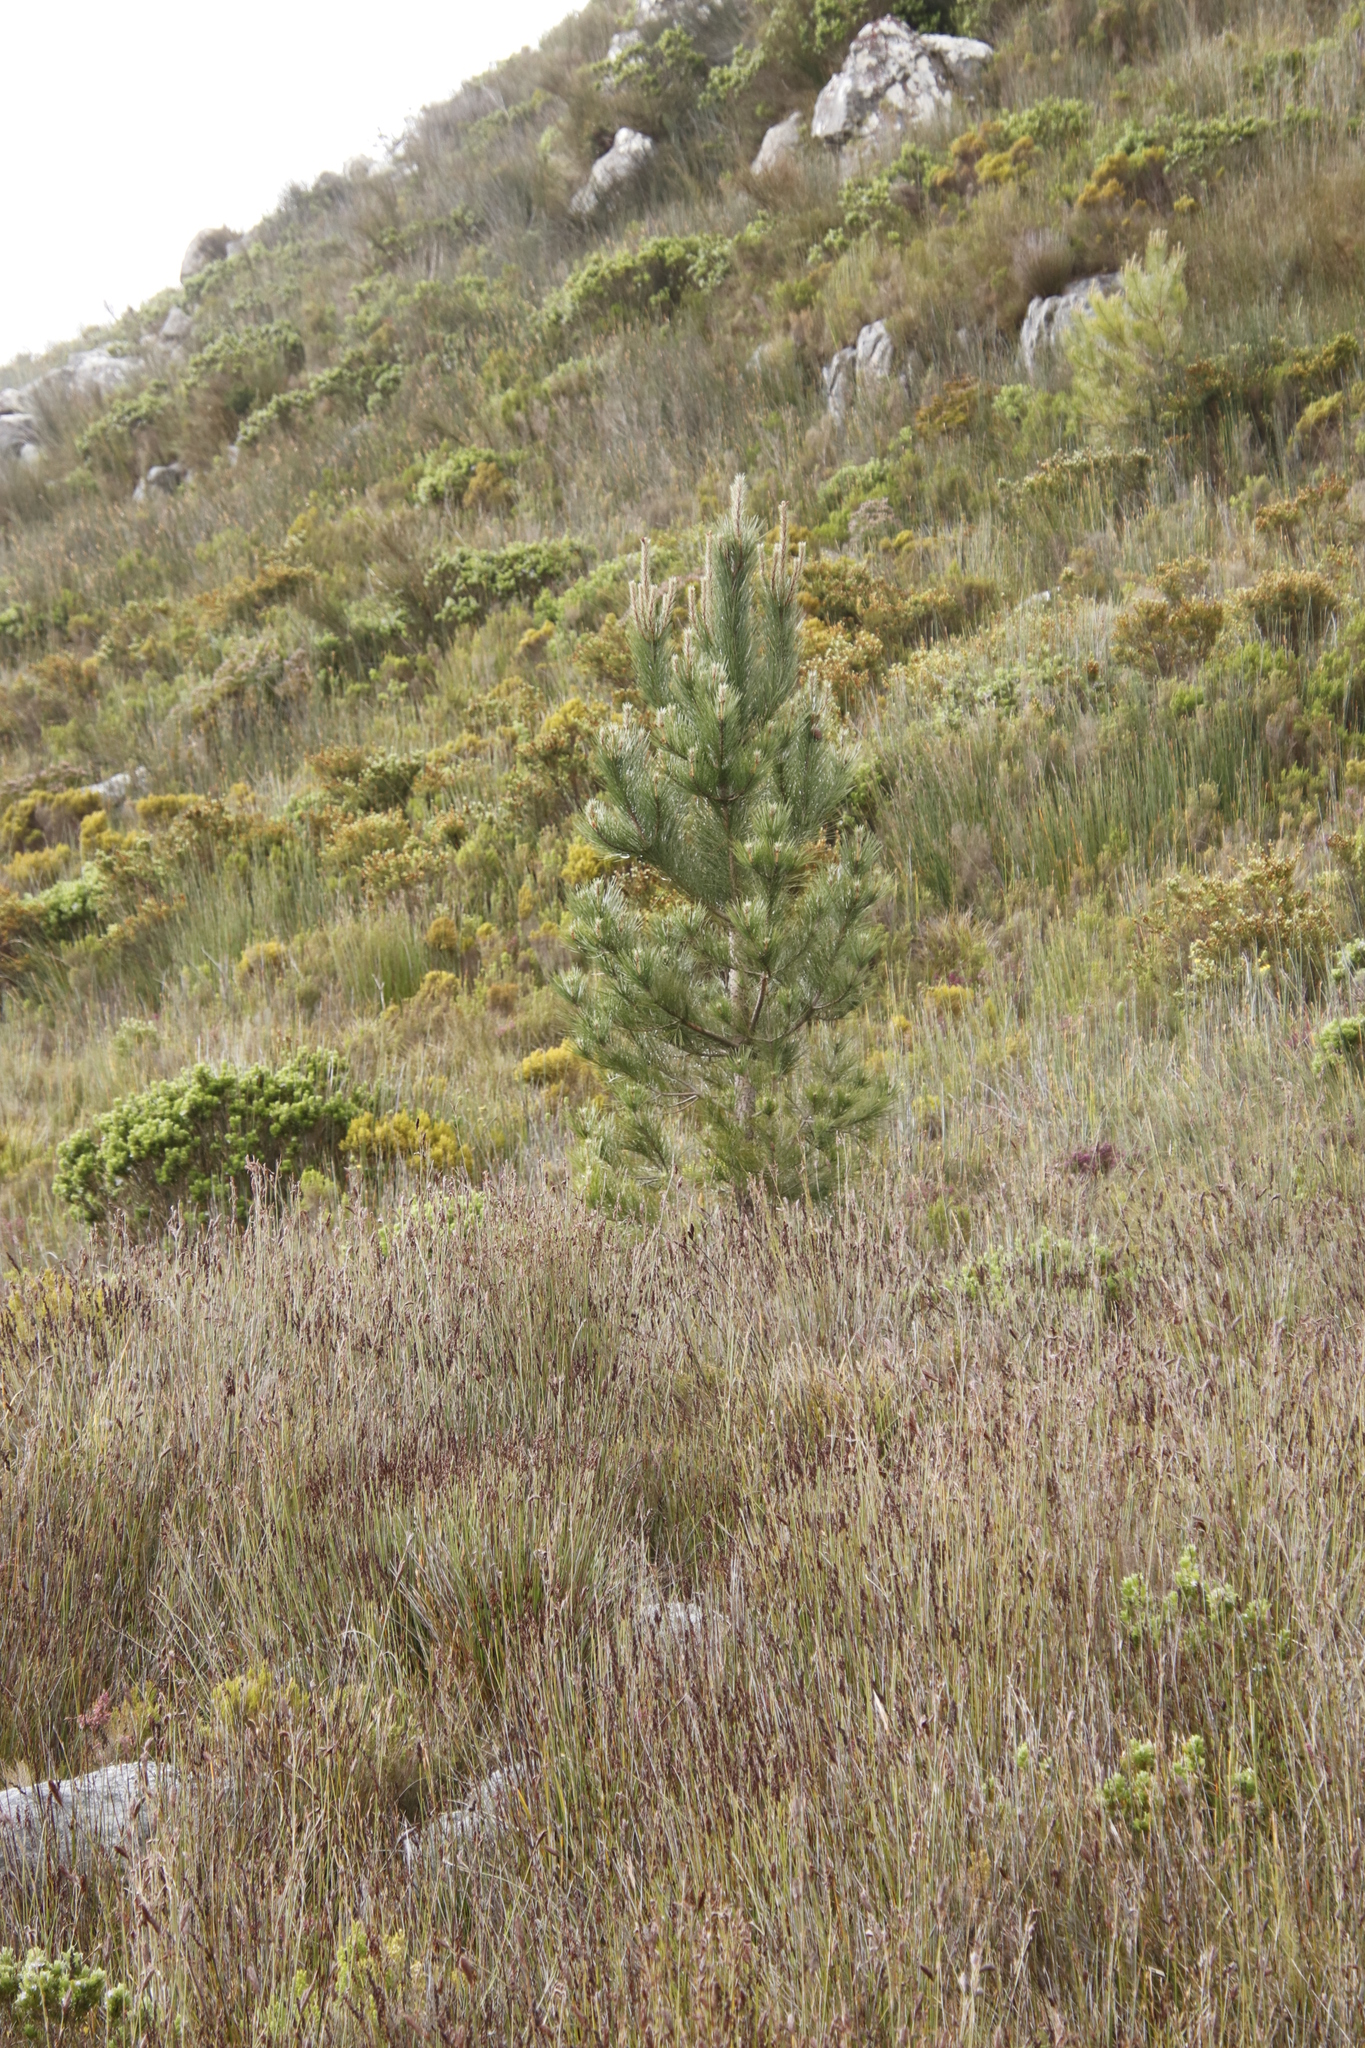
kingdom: Plantae
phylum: Tracheophyta
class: Pinopsida
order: Pinales
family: Pinaceae
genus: Pinus
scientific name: Pinus pinaster
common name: Maritime pine
